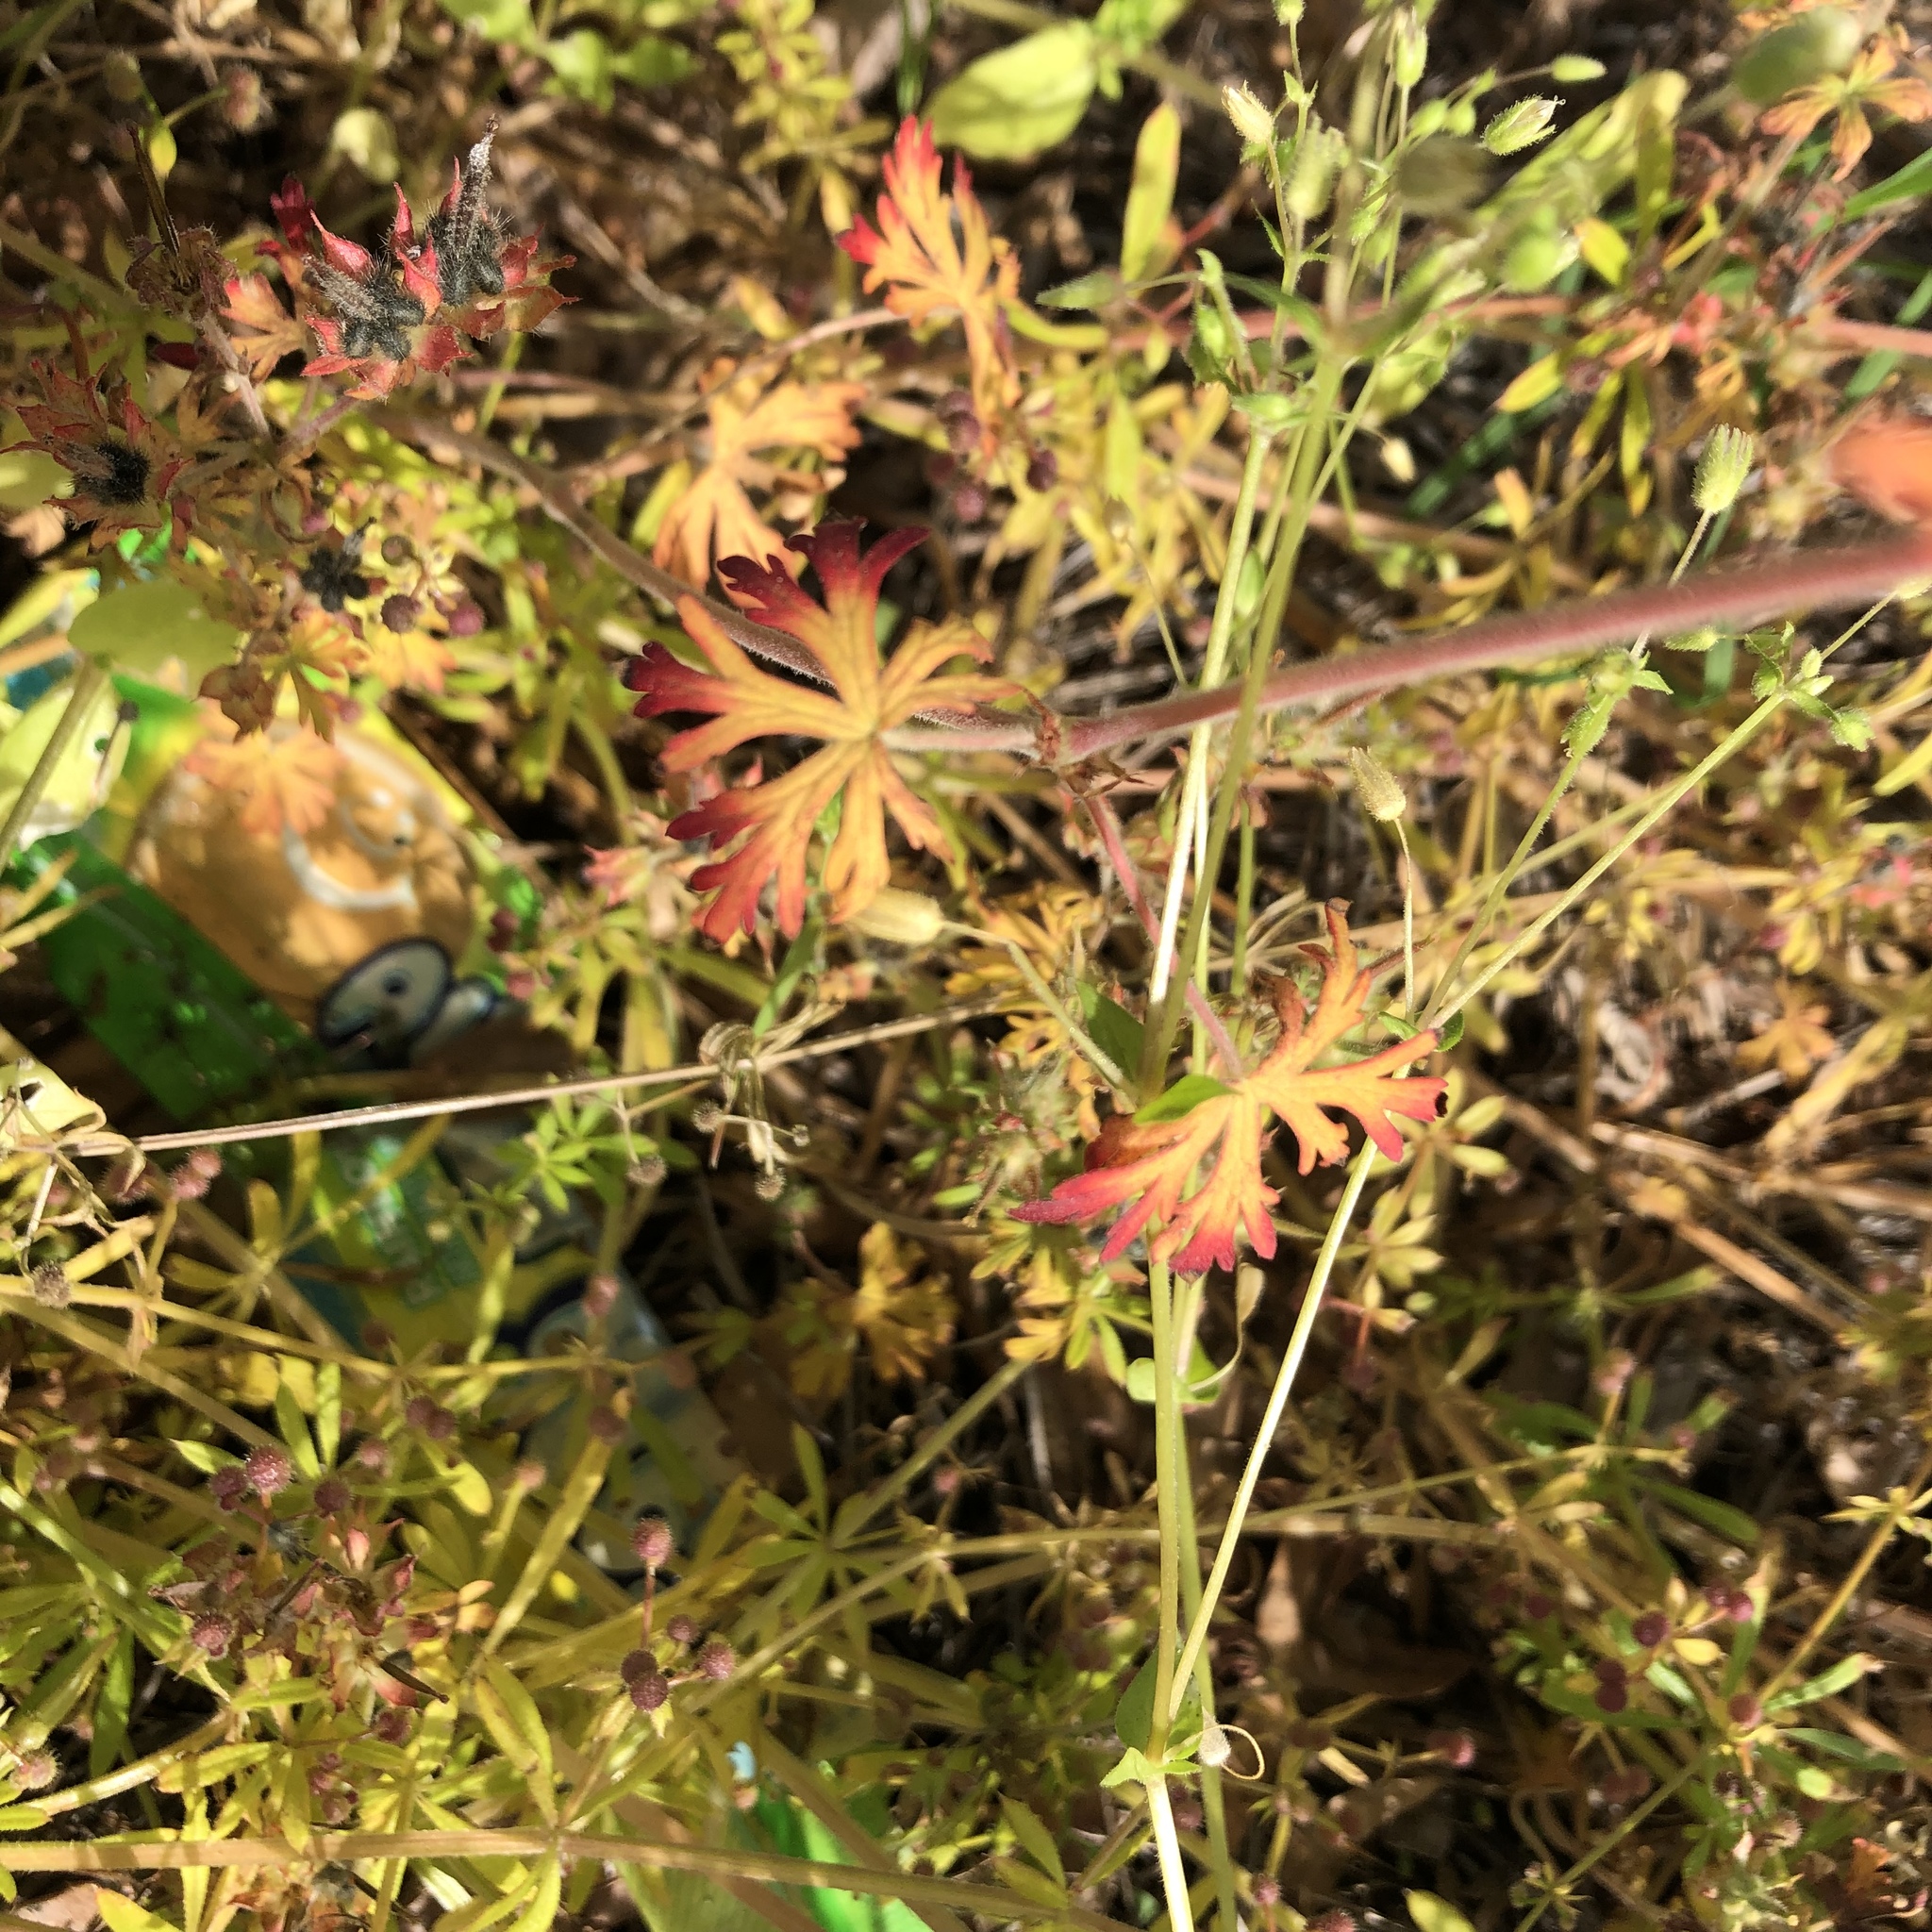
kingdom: Plantae
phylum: Tracheophyta
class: Magnoliopsida
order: Geraniales
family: Geraniaceae
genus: Geranium
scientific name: Geranium carolinianum
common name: Carolina crane's-bill
